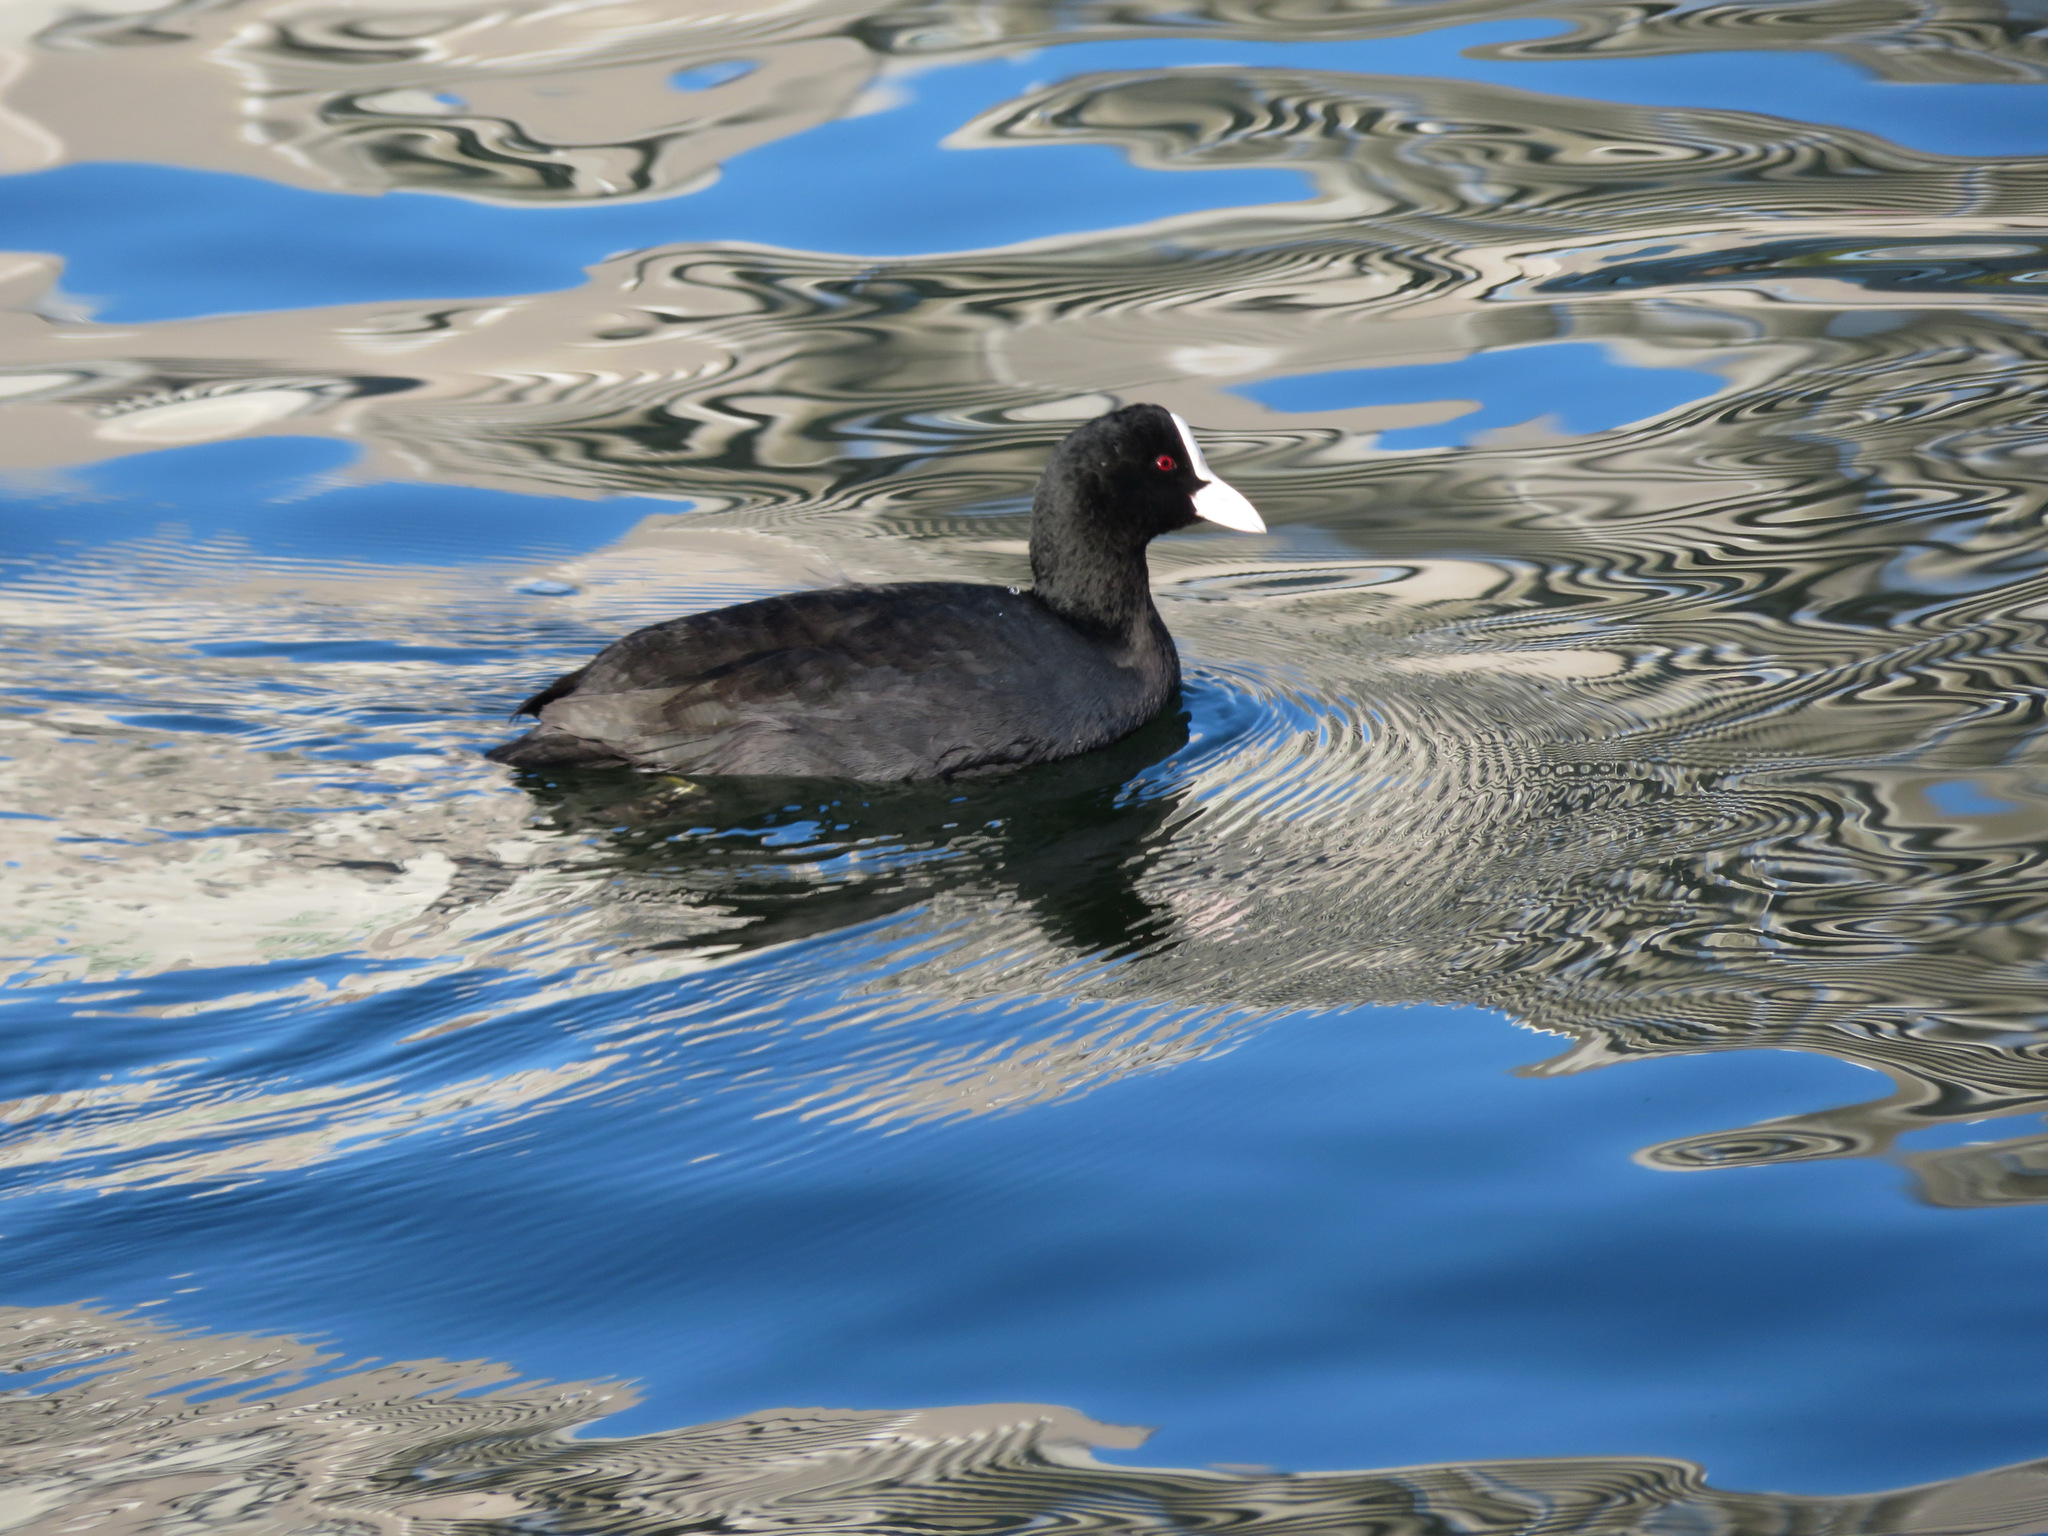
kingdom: Animalia
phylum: Chordata
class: Aves
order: Gruiformes
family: Rallidae
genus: Fulica
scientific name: Fulica atra
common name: Eurasian coot
